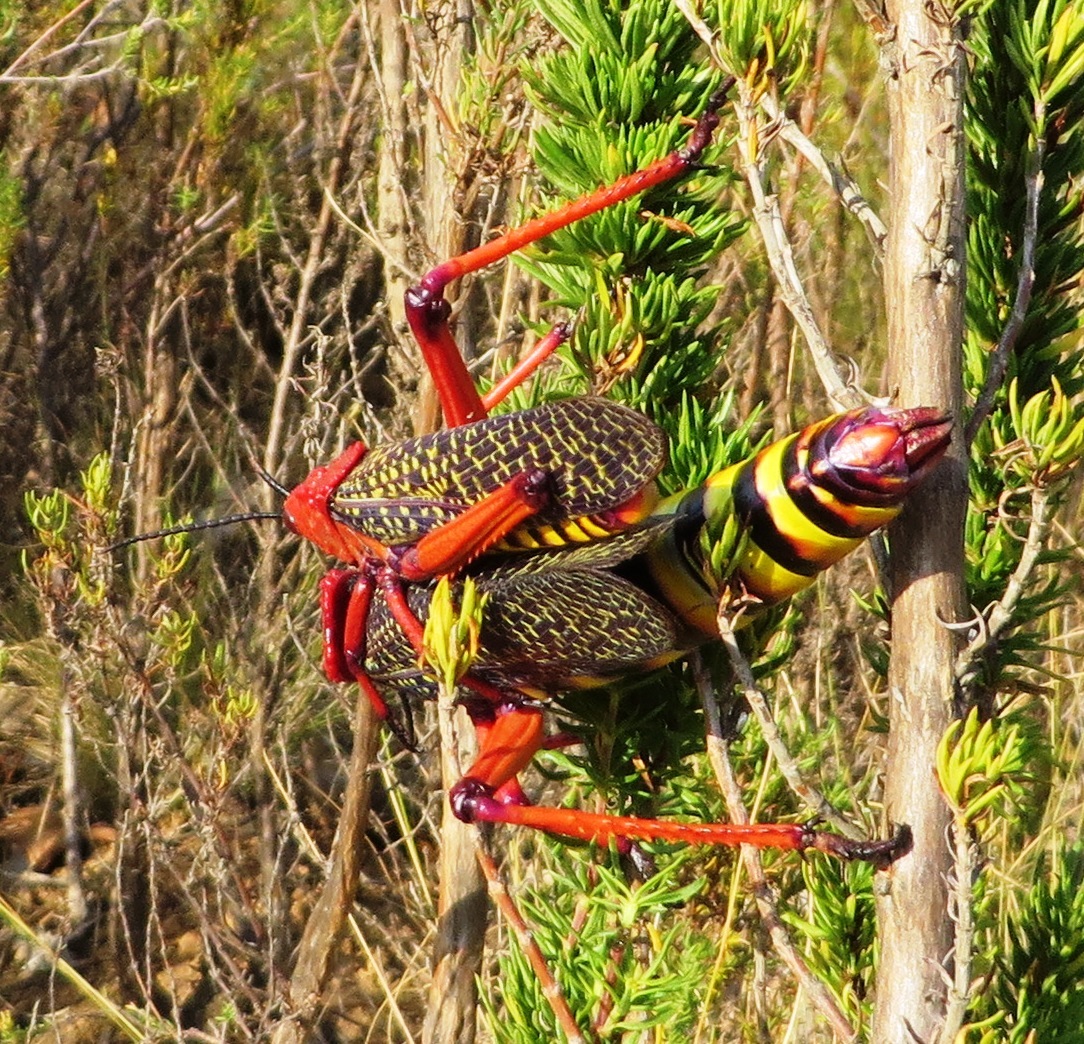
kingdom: Animalia
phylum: Arthropoda
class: Insecta
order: Orthoptera
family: Pyrgomorphidae
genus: Phymateus
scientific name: Phymateus morbillosus
